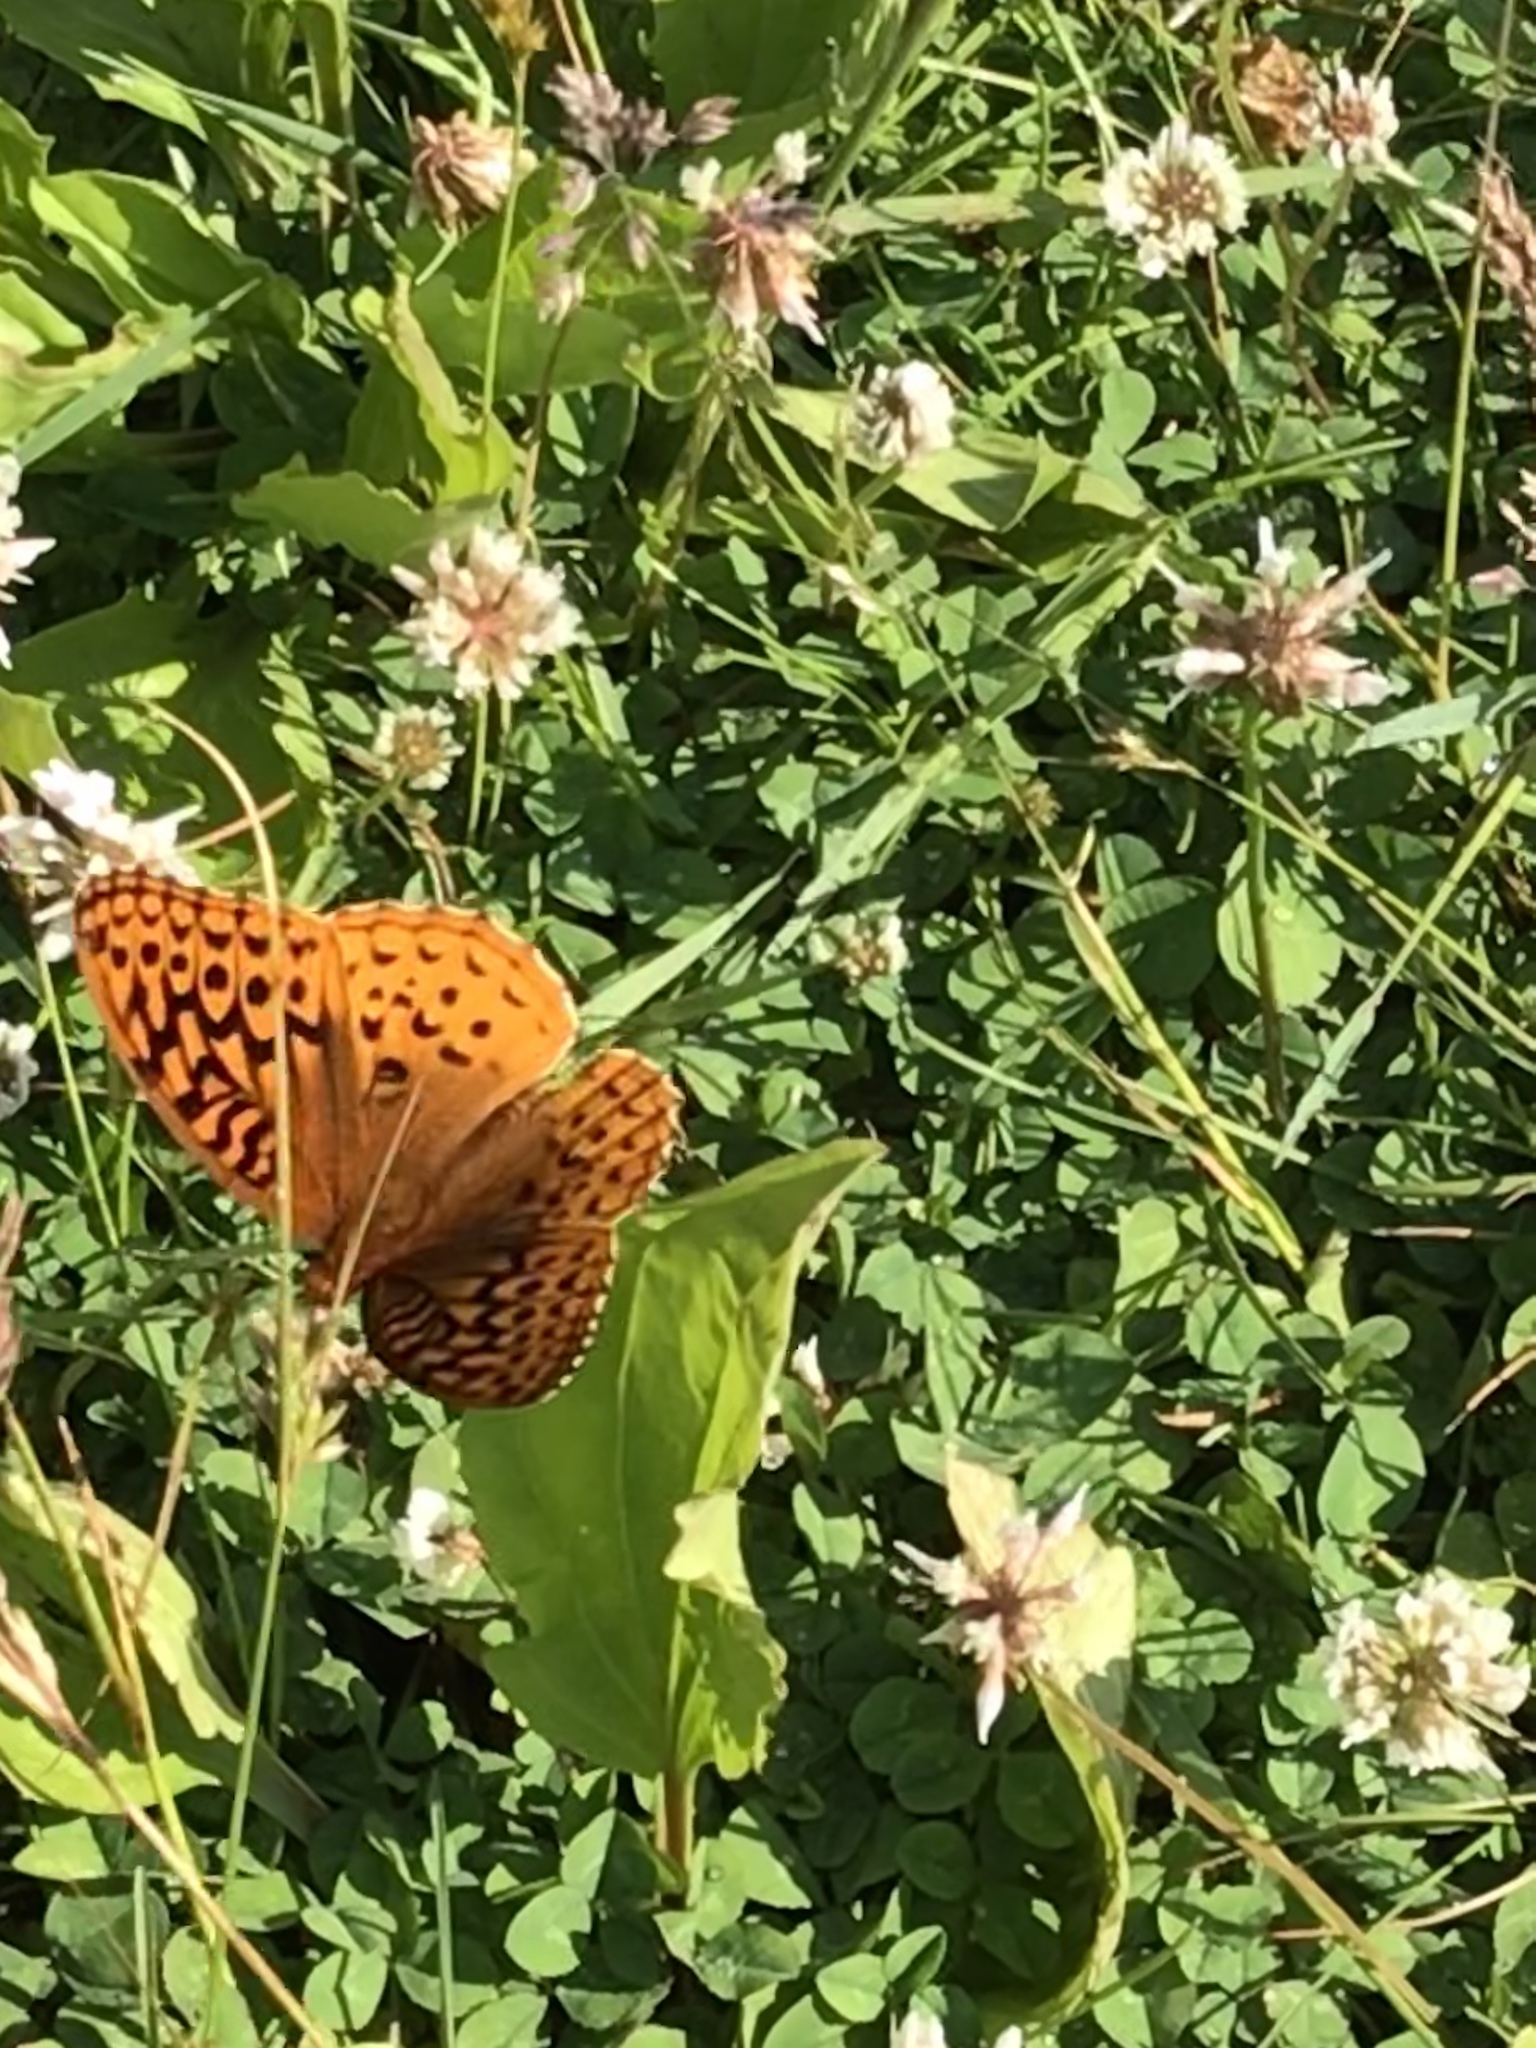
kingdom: Animalia
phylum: Arthropoda
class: Insecta
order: Lepidoptera
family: Nymphalidae
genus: Speyeria
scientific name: Speyeria cybele
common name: Great spangled fritillary
